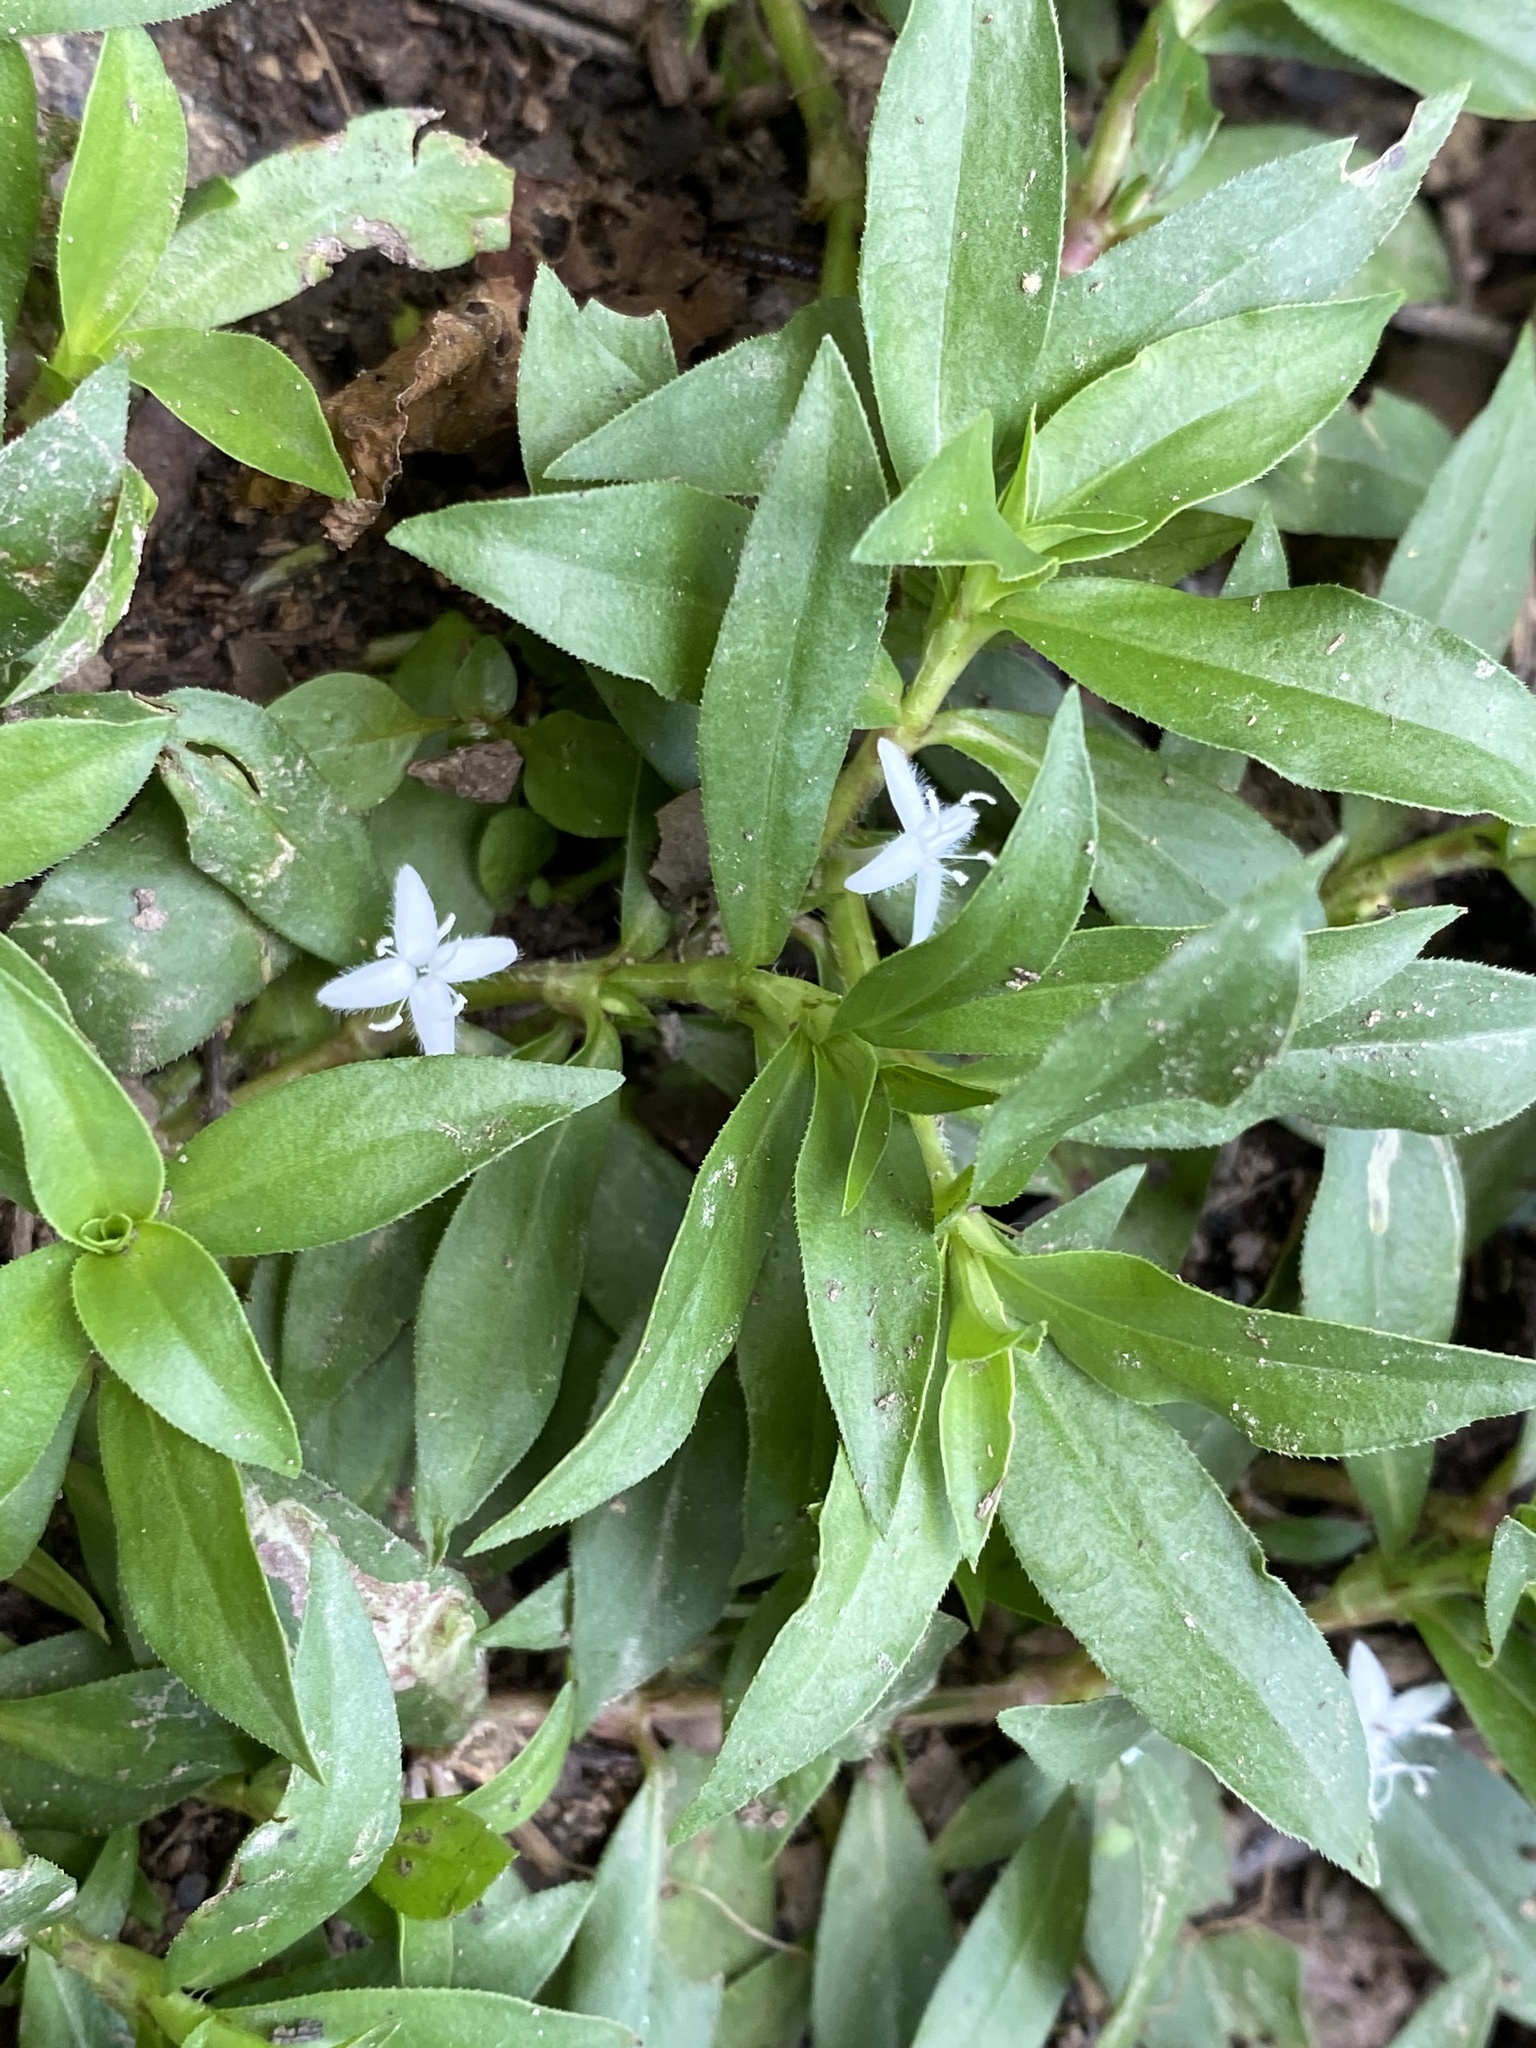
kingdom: Plantae
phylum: Tracheophyta
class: Magnoliopsida
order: Gentianales
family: Rubiaceae
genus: Diodia
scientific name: Diodia virginiana
